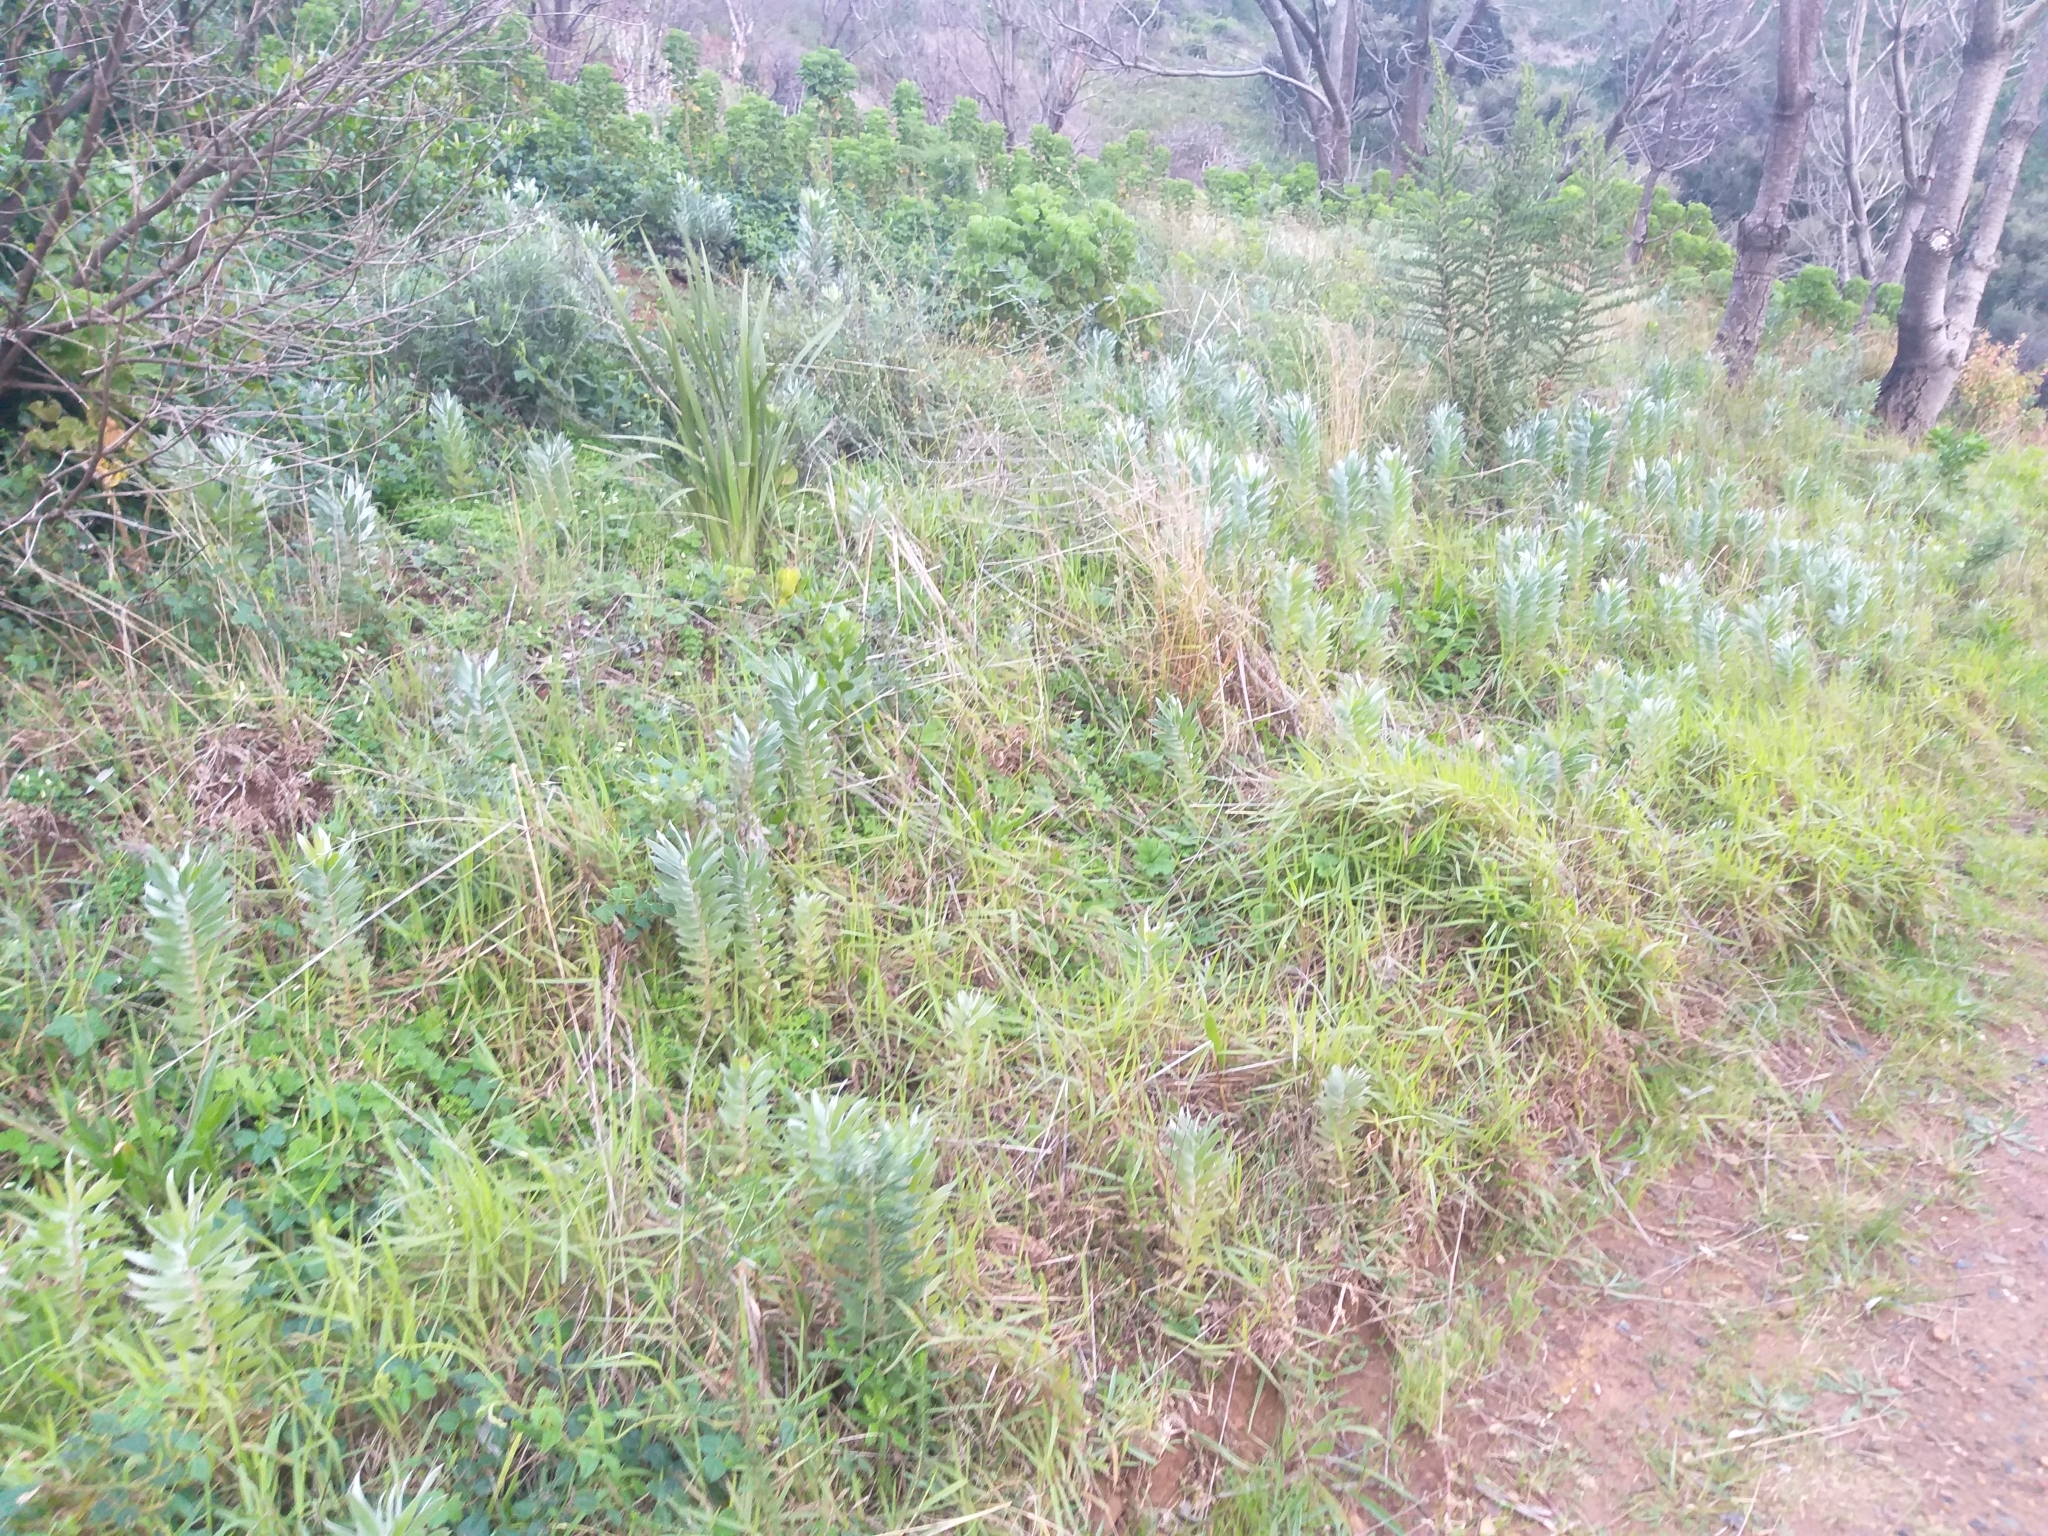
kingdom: Plantae
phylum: Tracheophyta
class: Magnoliopsida
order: Proteales
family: Proteaceae
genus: Leucadendron
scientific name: Leucadendron argenteum
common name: Cape silver tree
